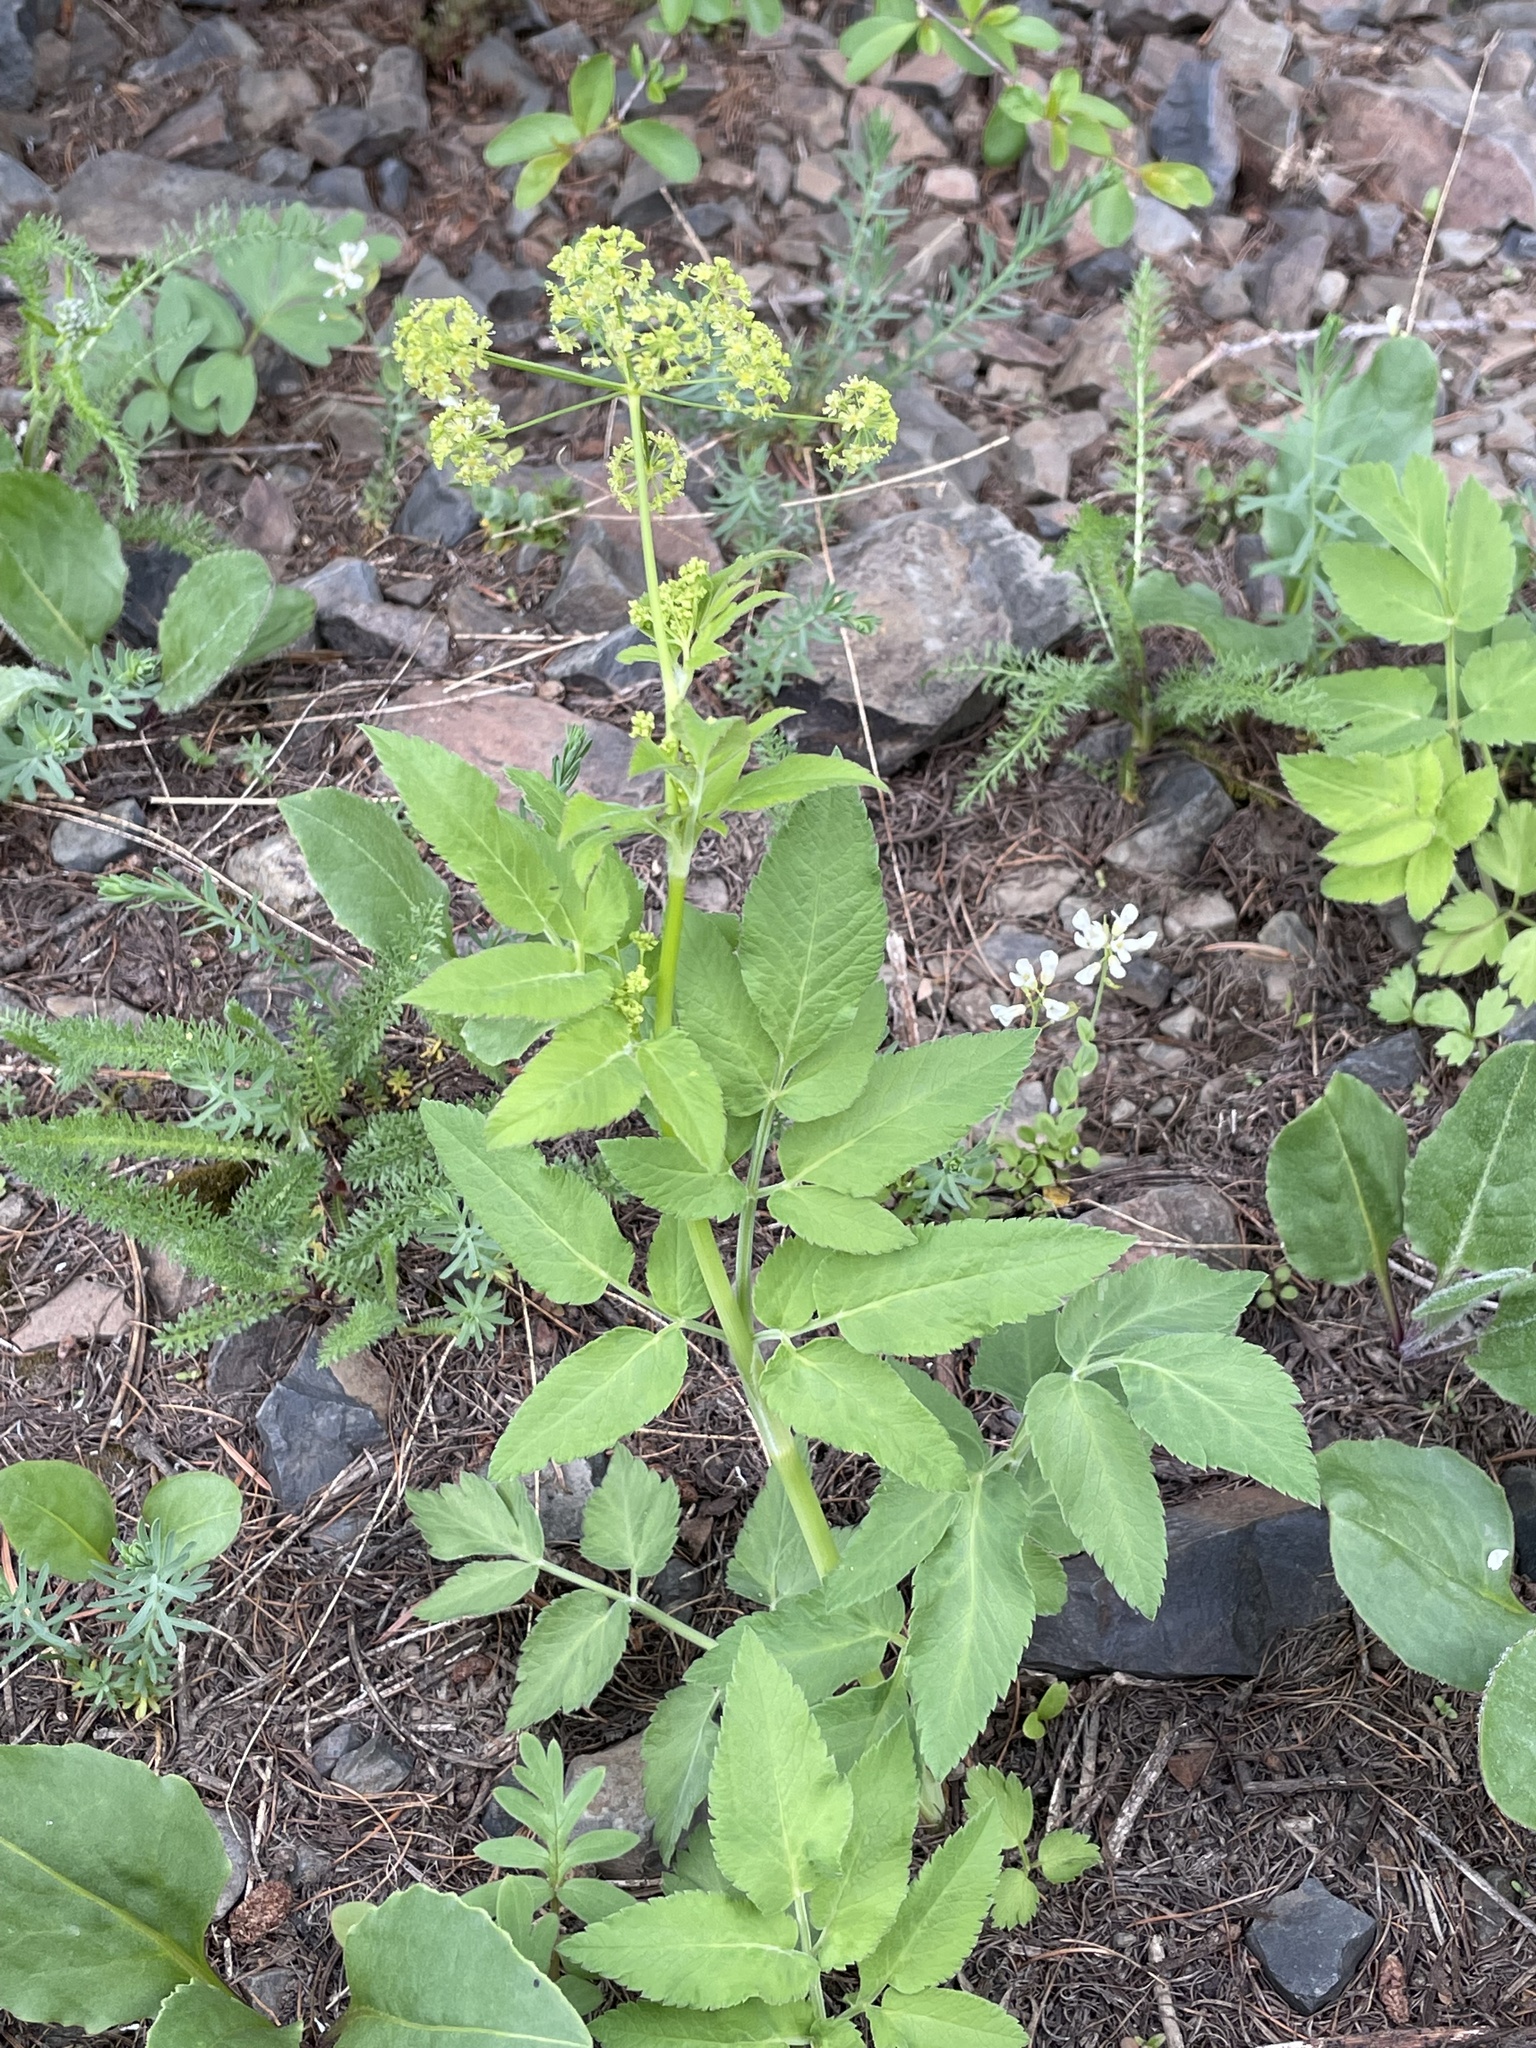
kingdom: Plantae
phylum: Tracheophyta
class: Magnoliopsida
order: Apiales
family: Apiaceae
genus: Osmorhiza
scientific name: Osmorhiza occidentalis
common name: Western sweet cicely
